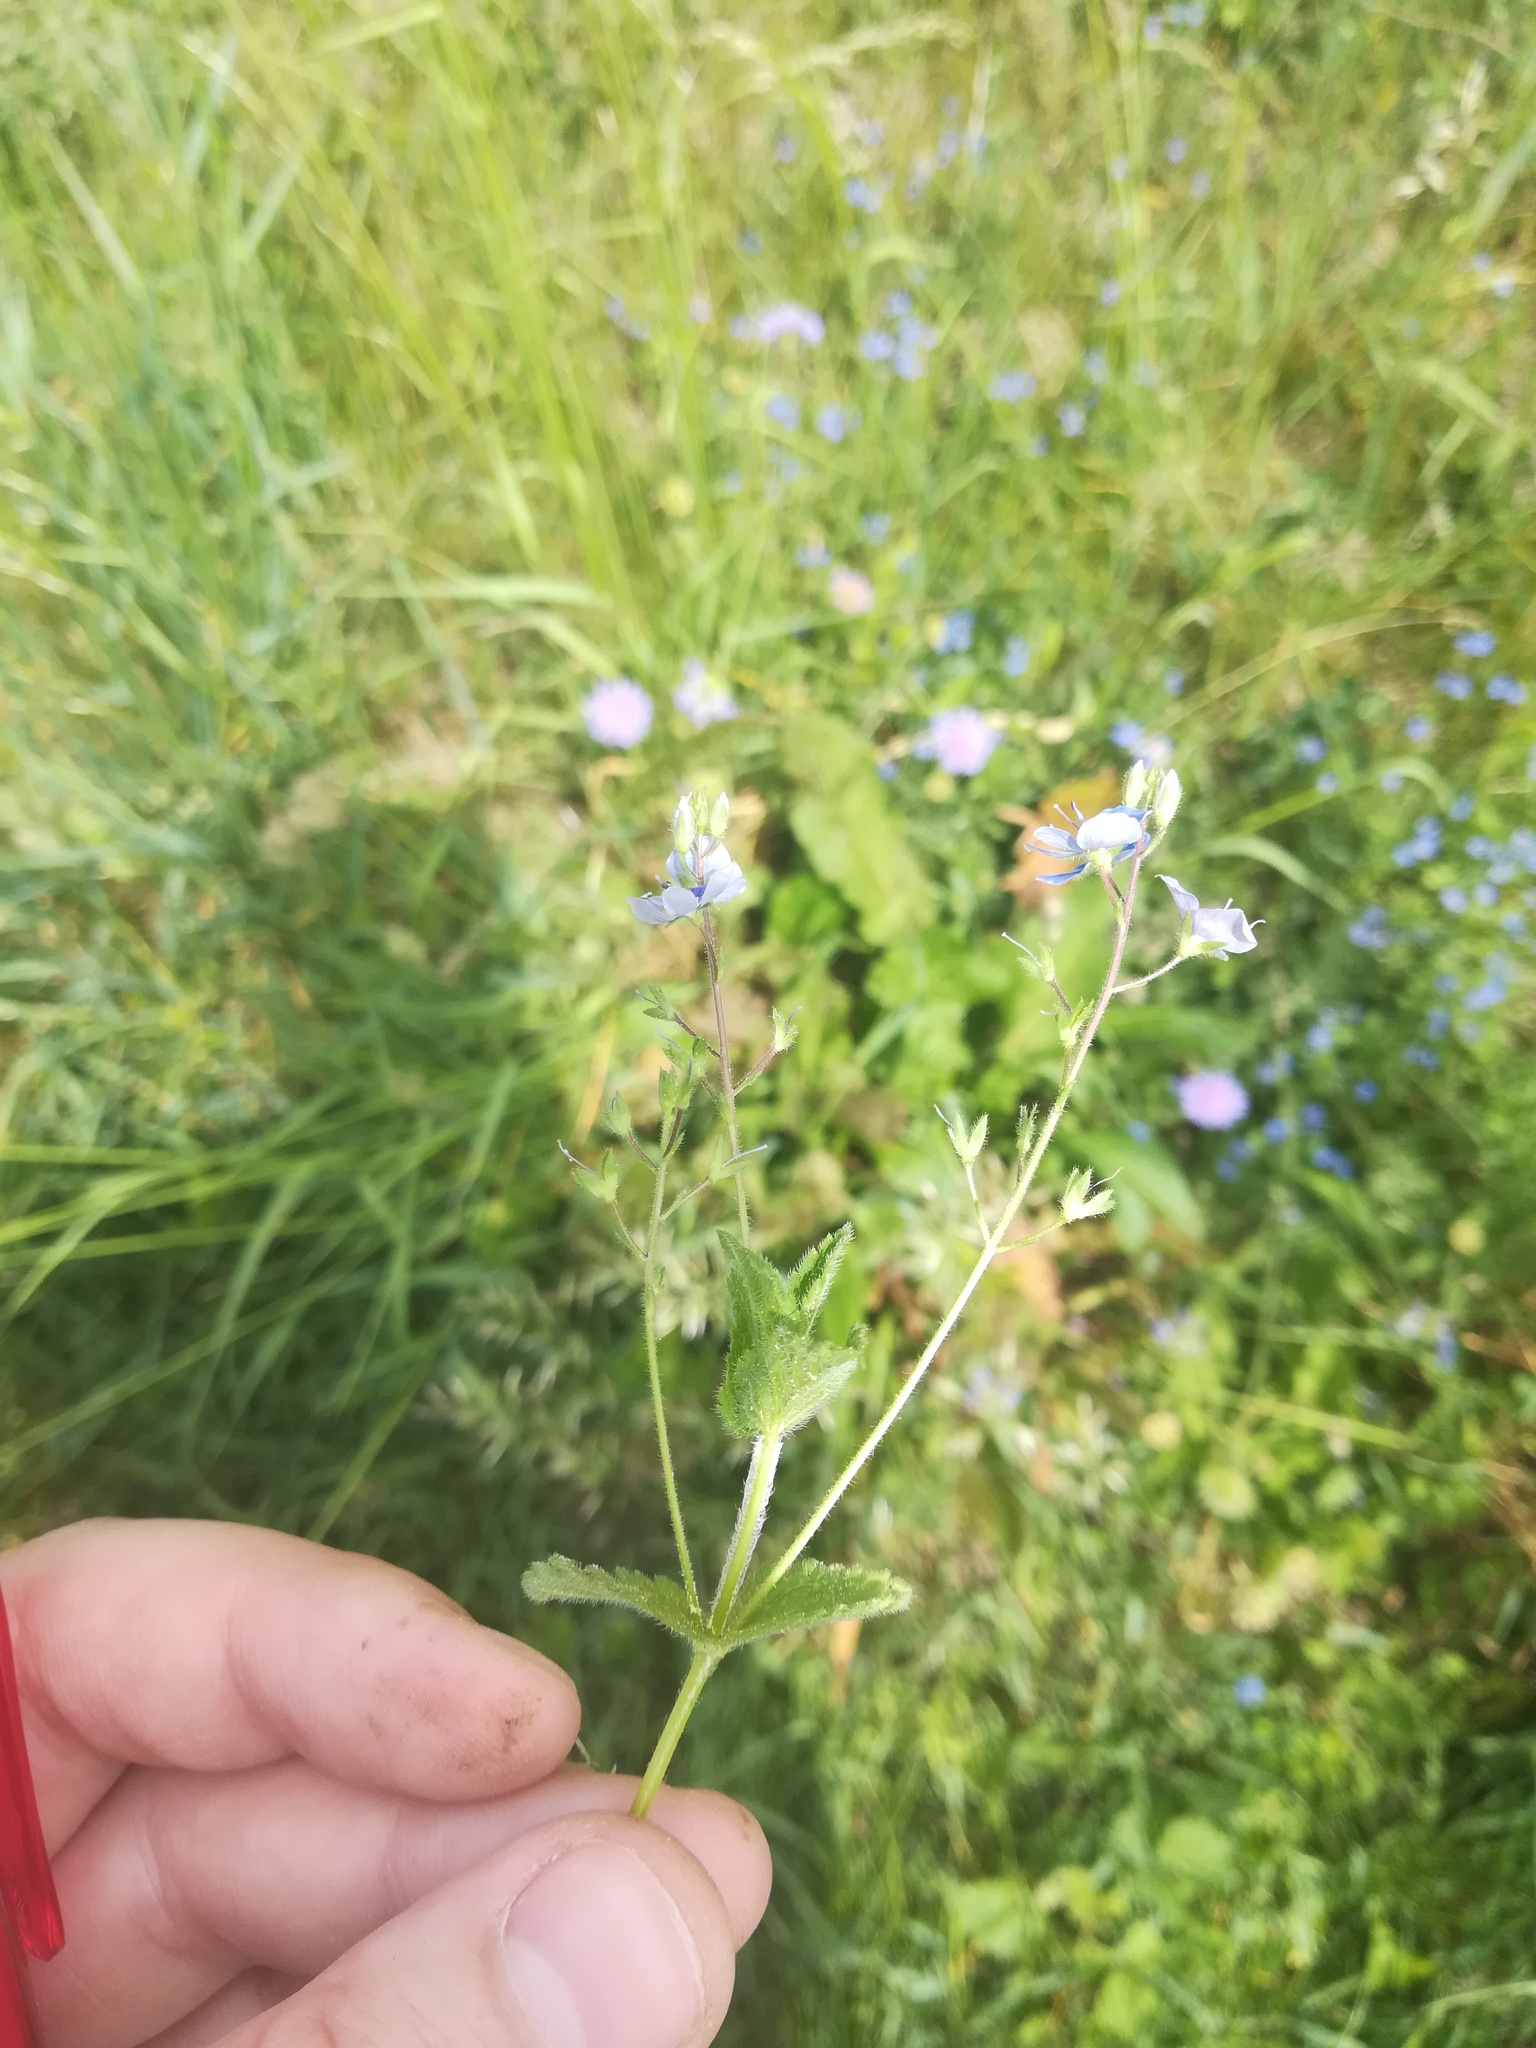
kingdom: Plantae
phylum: Tracheophyta
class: Magnoliopsida
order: Lamiales
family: Plantaginaceae
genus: Veronica
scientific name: Veronica vindobonensis
